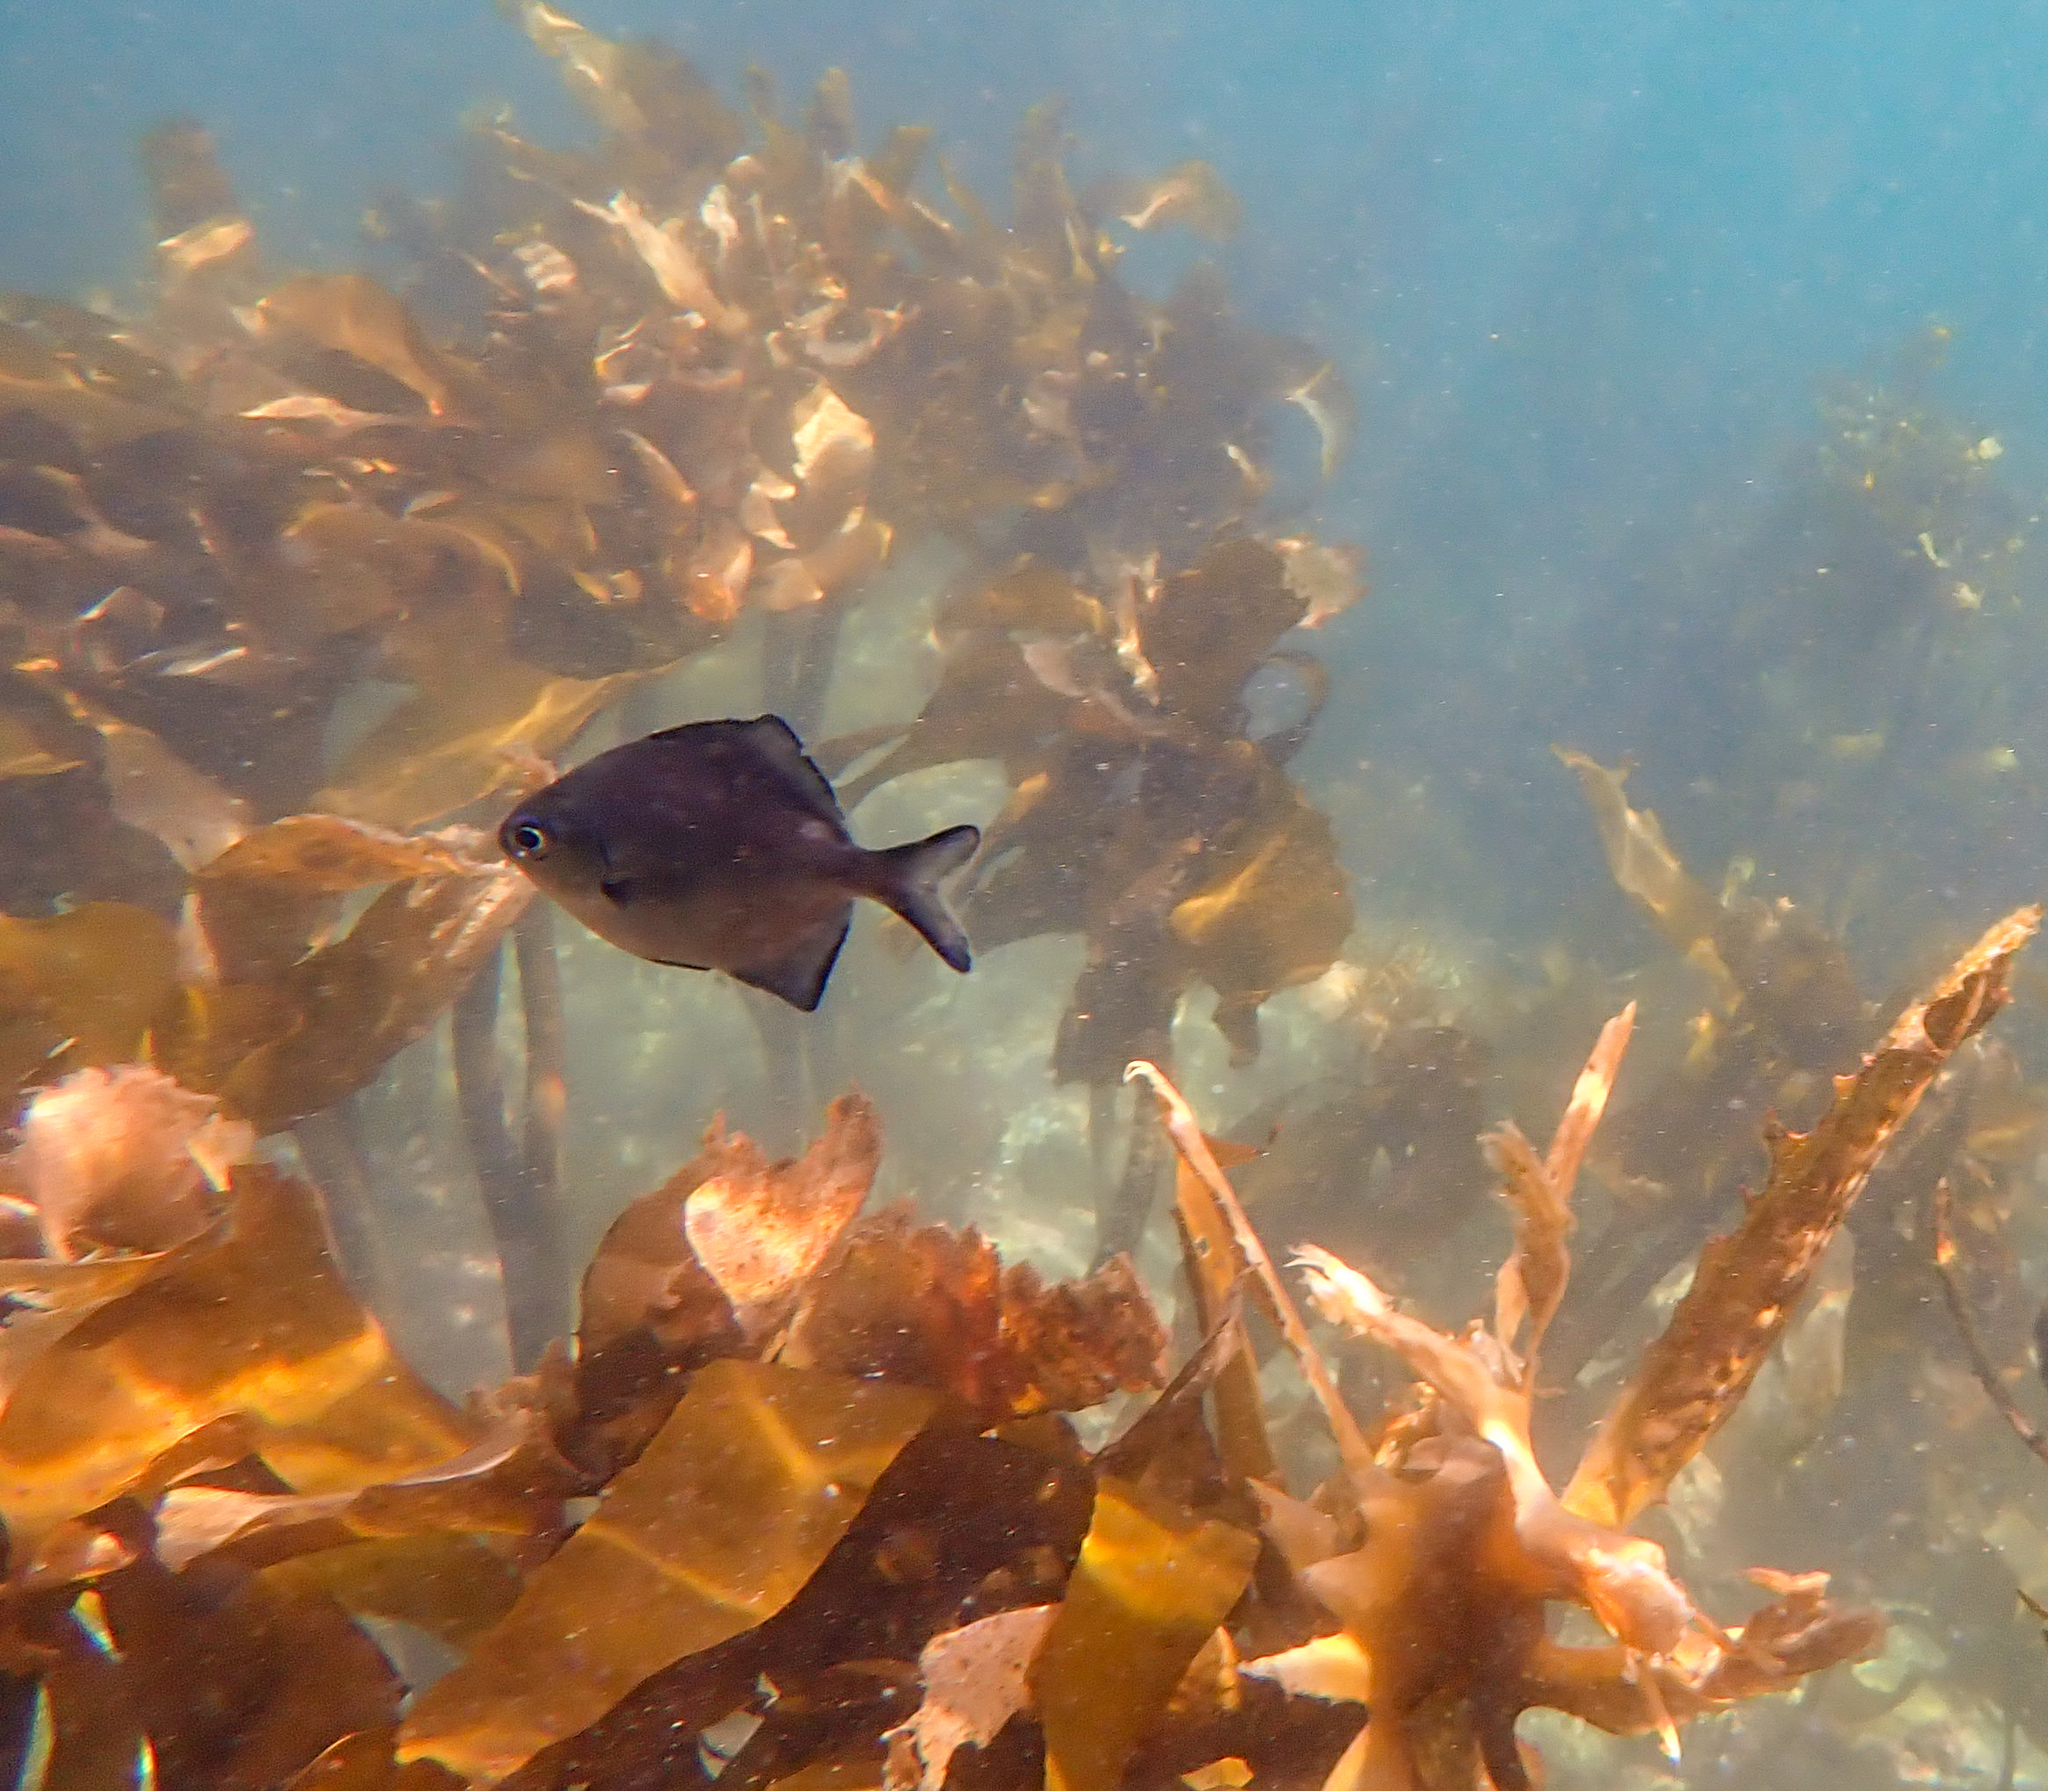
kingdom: Animalia
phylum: Chordata
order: Perciformes
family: Kyphosidae
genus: Scorpis
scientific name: Scorpis lineolata
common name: Sweep
